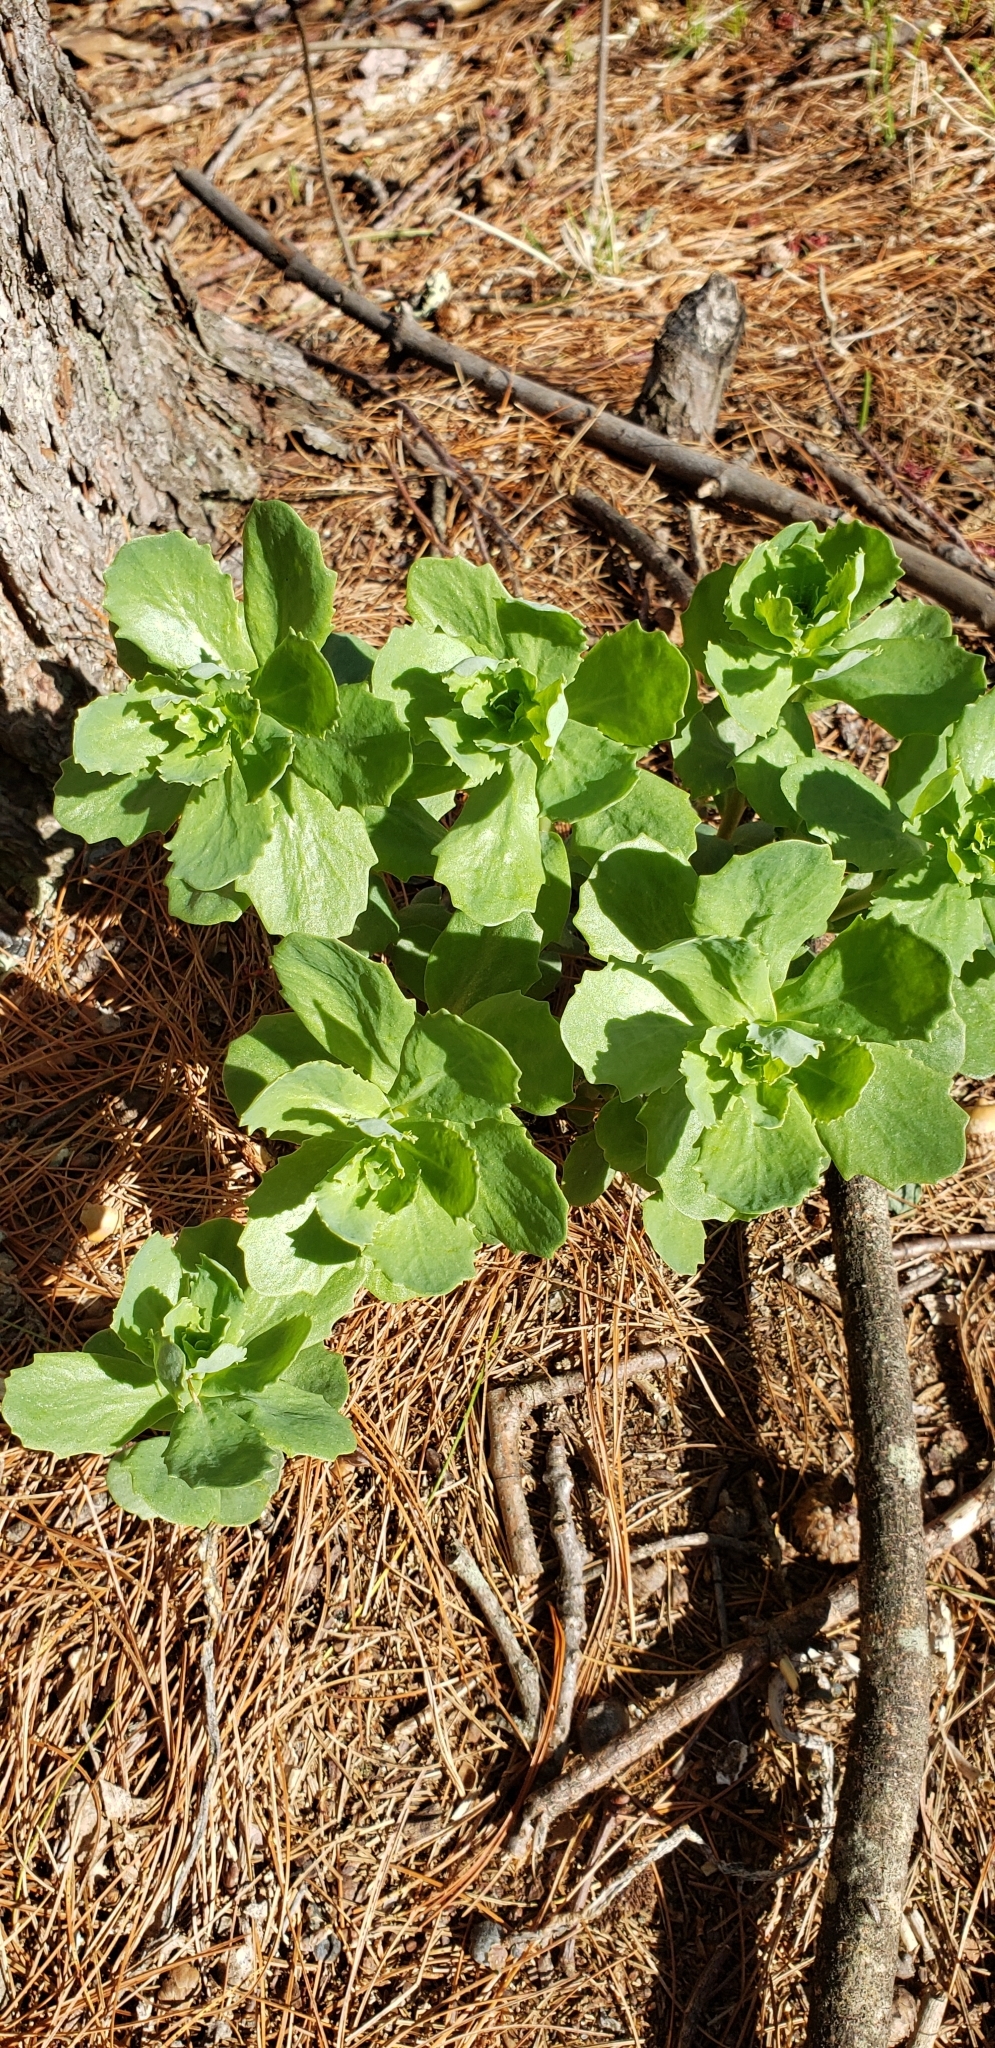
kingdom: Plantae
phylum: Tracheophyta
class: Magnoliopsida
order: Saxifragales
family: Crassulaceae
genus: Hylotelephium
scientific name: Hylotelephium telephium
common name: Live-forever
